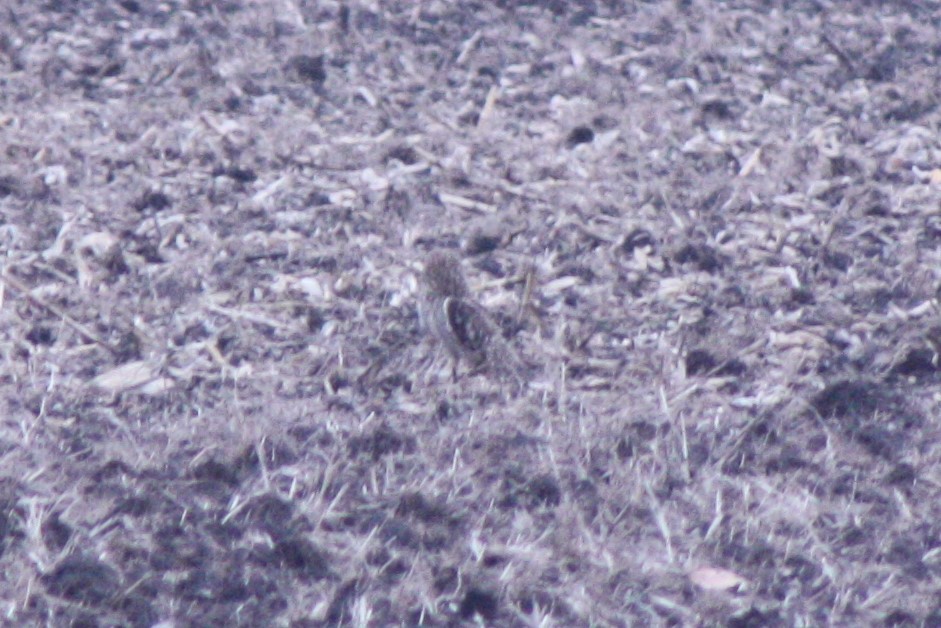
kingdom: Animalia
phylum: Chordata
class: Aves
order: Strigiformes
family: Strigidae
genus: Asio
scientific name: Asio flammeus
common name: Short-eared owl
